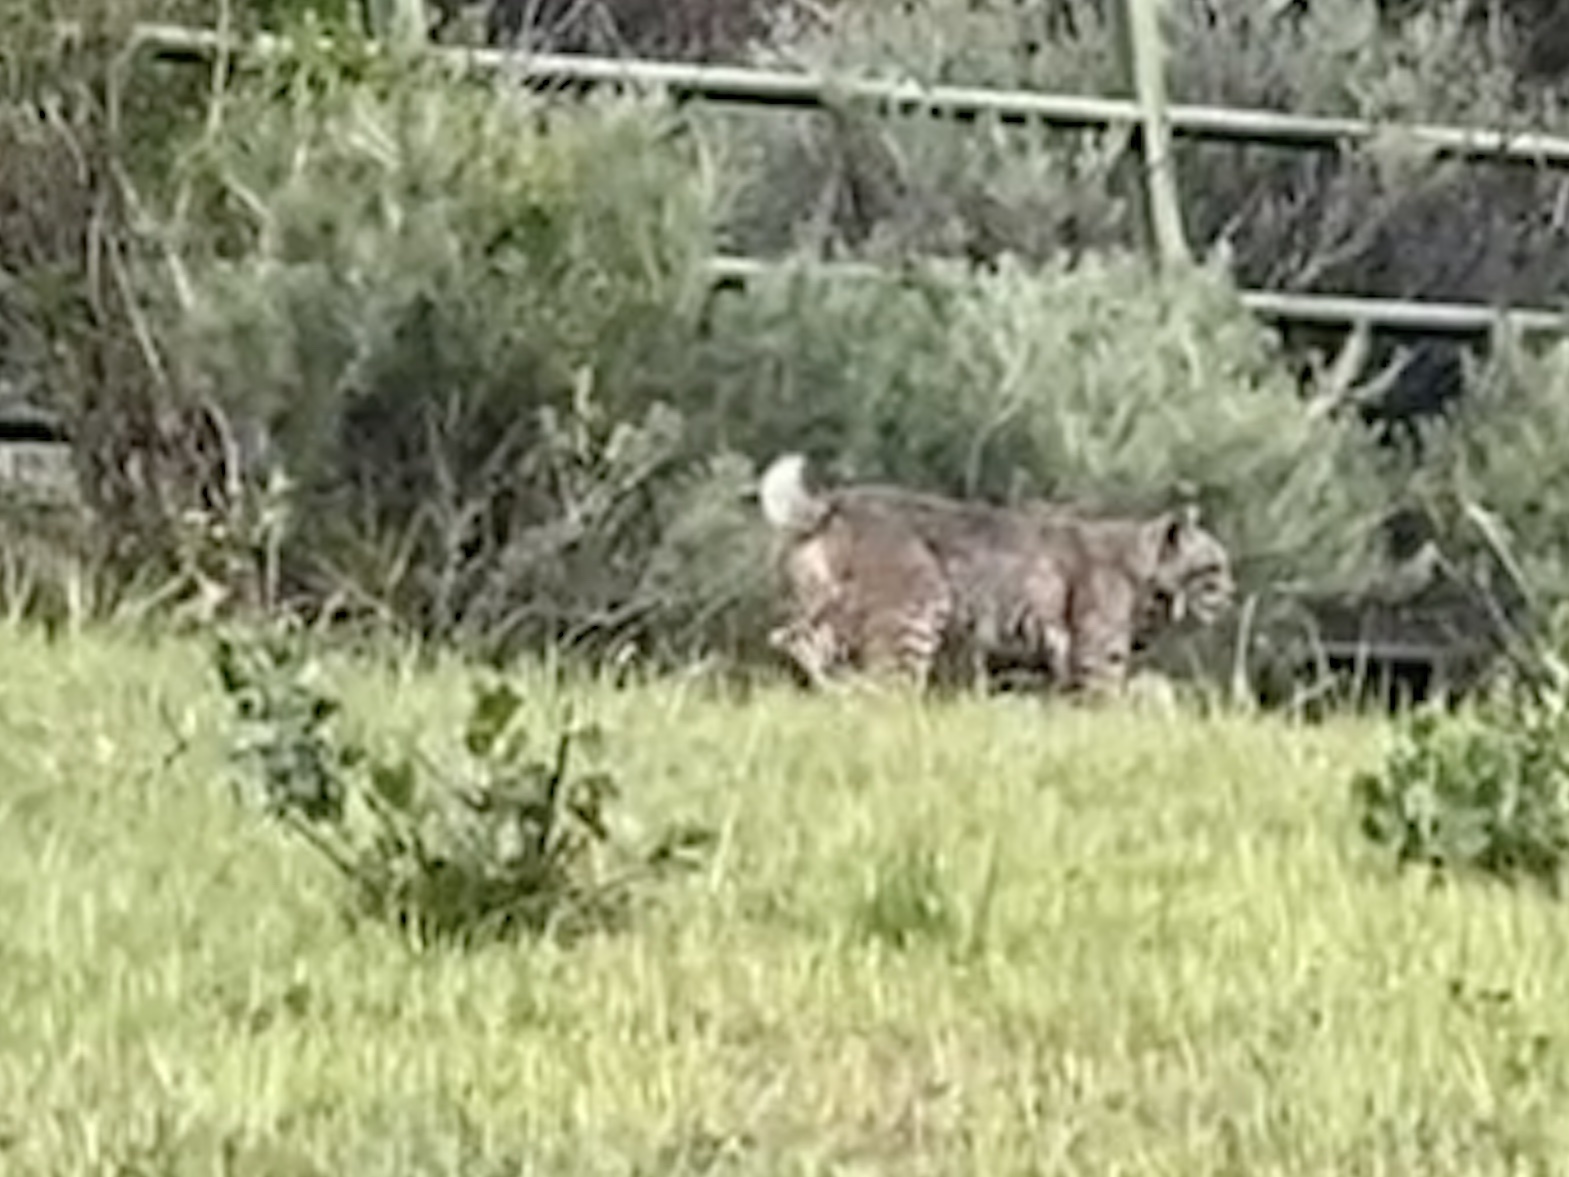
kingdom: Animalia
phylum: Chordata
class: Mammalia
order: Carnivora
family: Felidae
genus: Lynx
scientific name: Lynx rufus
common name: Bobcat
